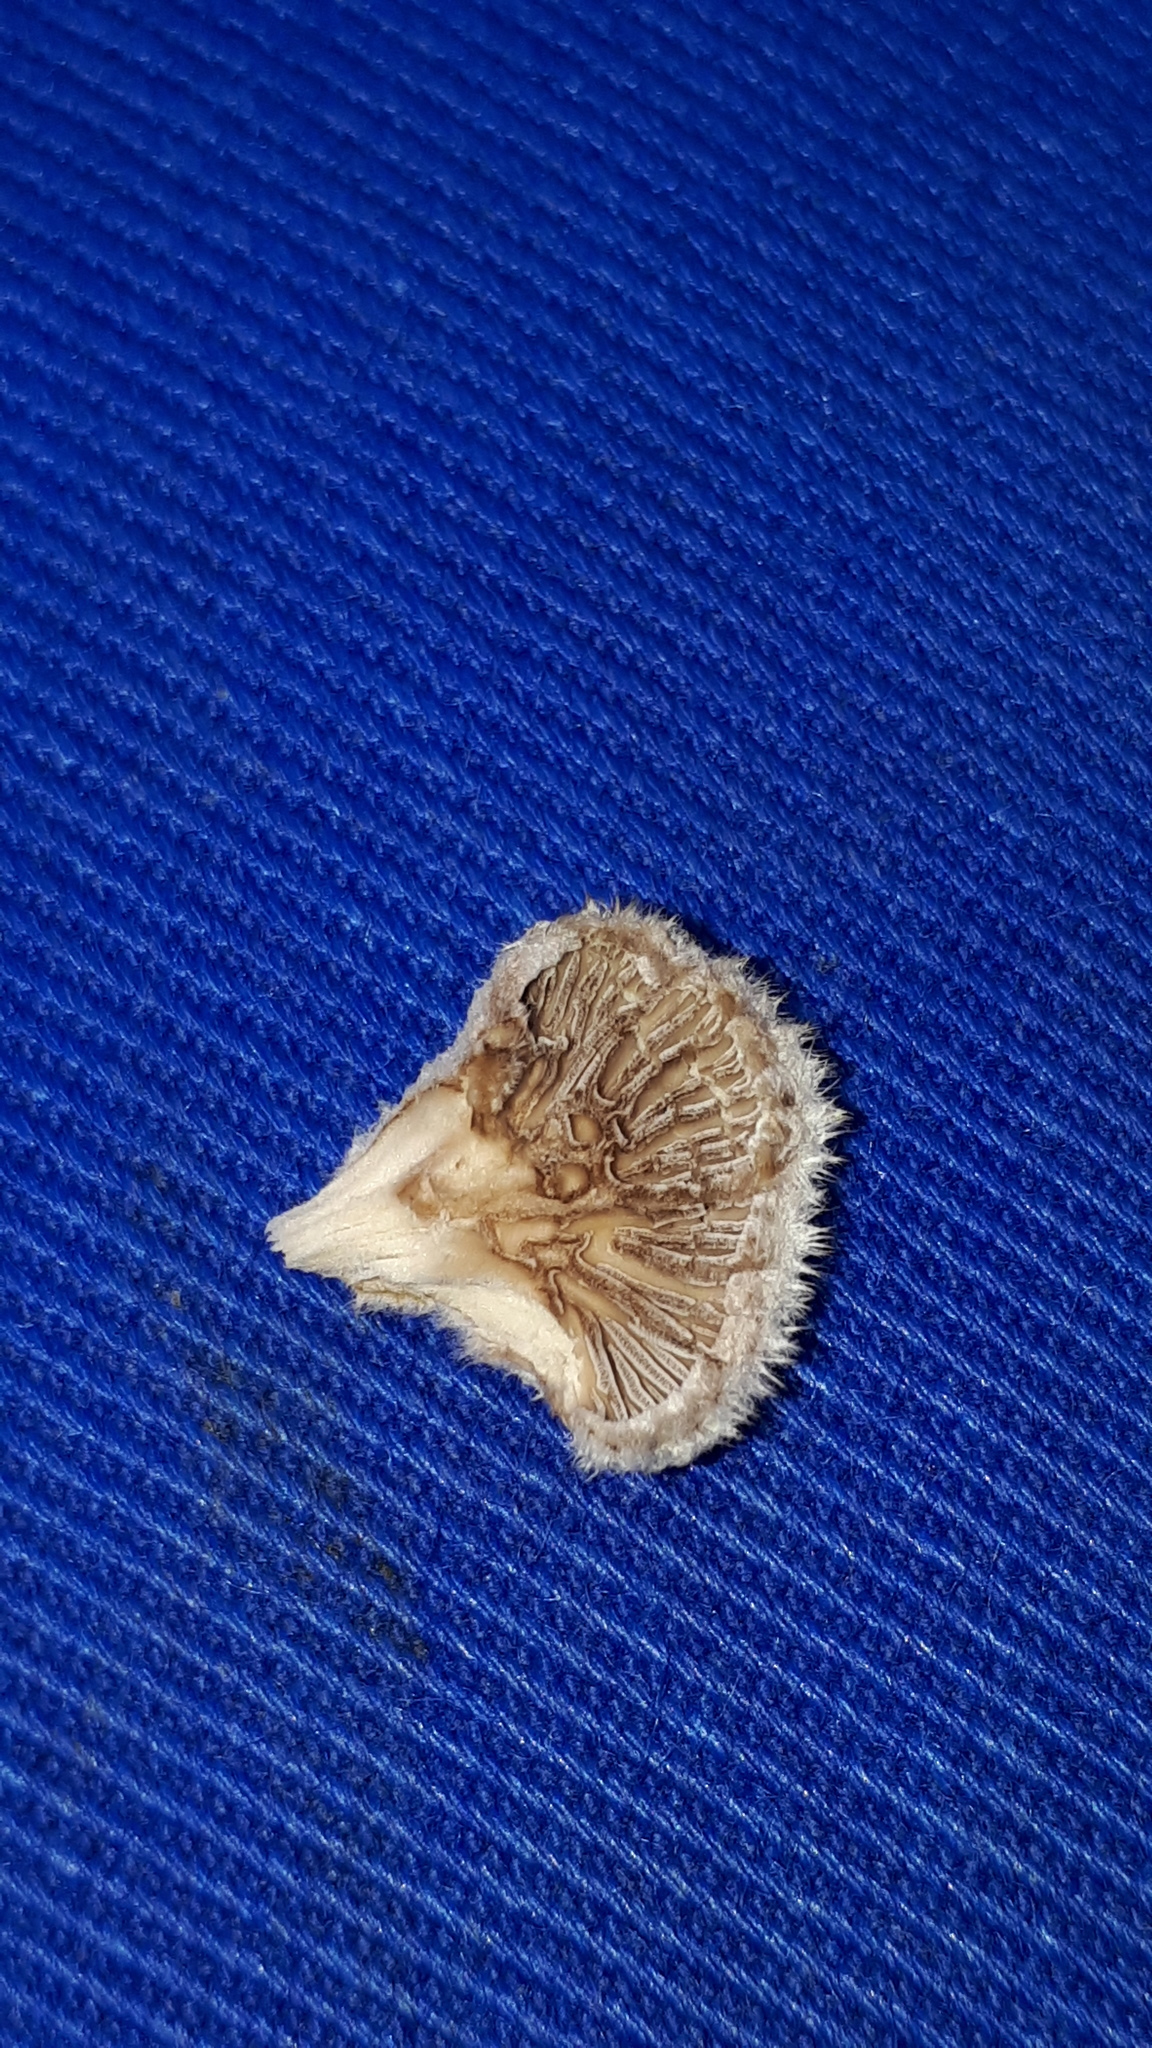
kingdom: Fungi
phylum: Basidiomycota
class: Agaricomycetes
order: Agaricales
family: Schizophyllaceae
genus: Schizophyllum
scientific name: Schizophyllum commune
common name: Common porecrust
